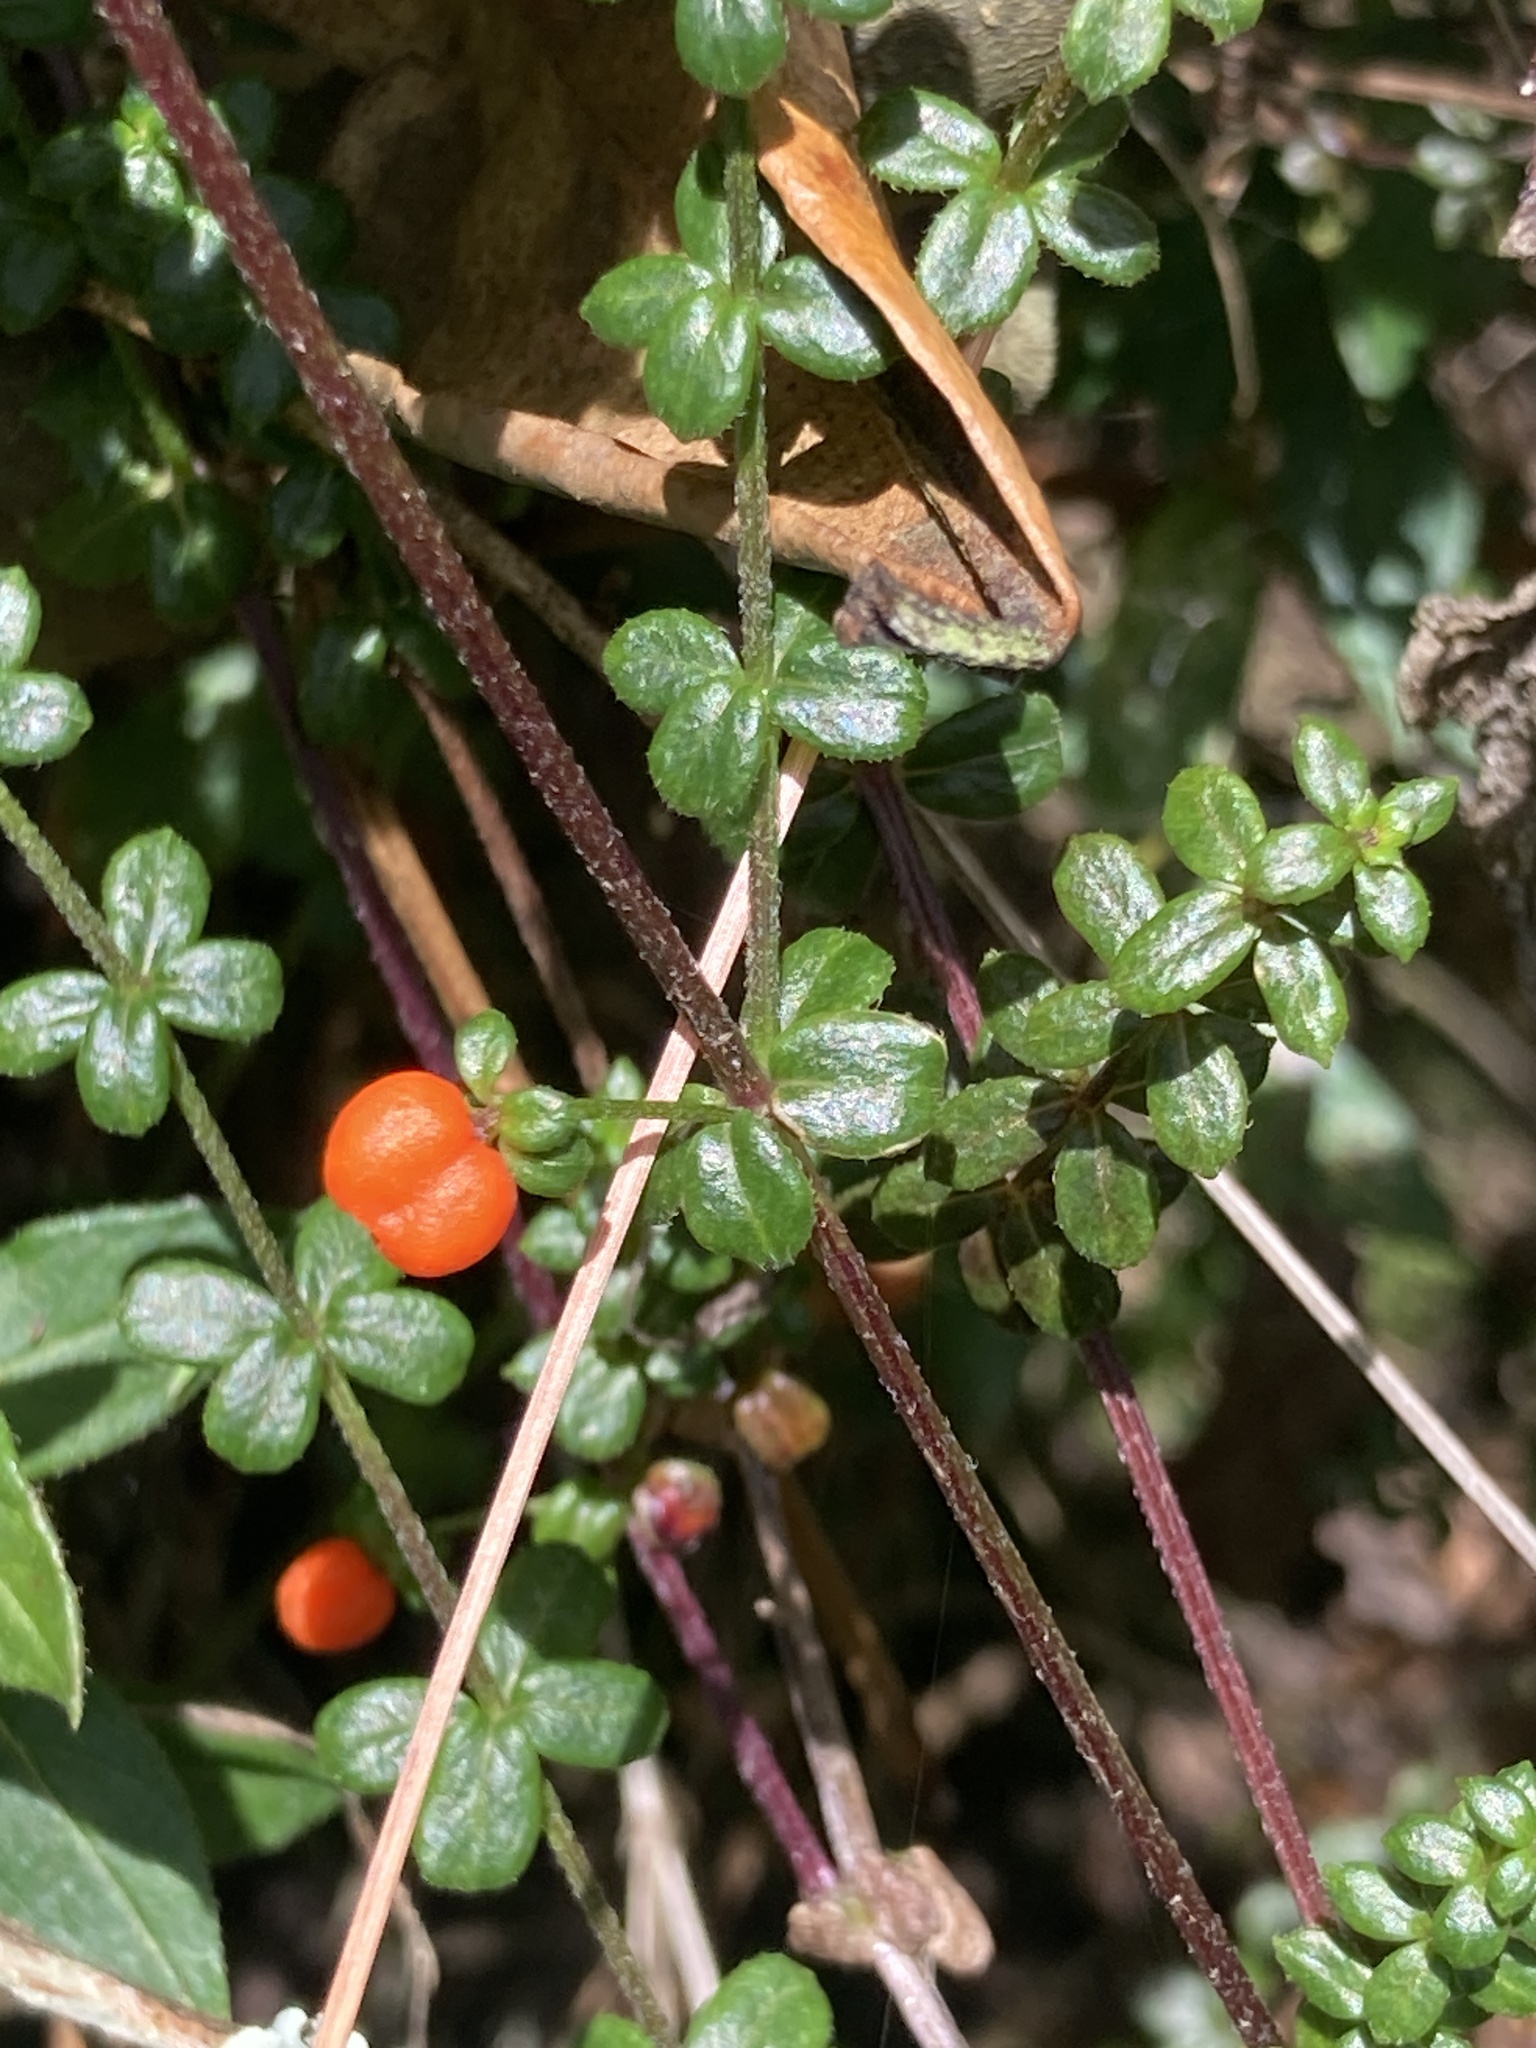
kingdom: Plantae
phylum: Tracheophyta
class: Magnoliopsida
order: Gentianales
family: Rubiaceae
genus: Galium
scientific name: Galium hypocarpium
